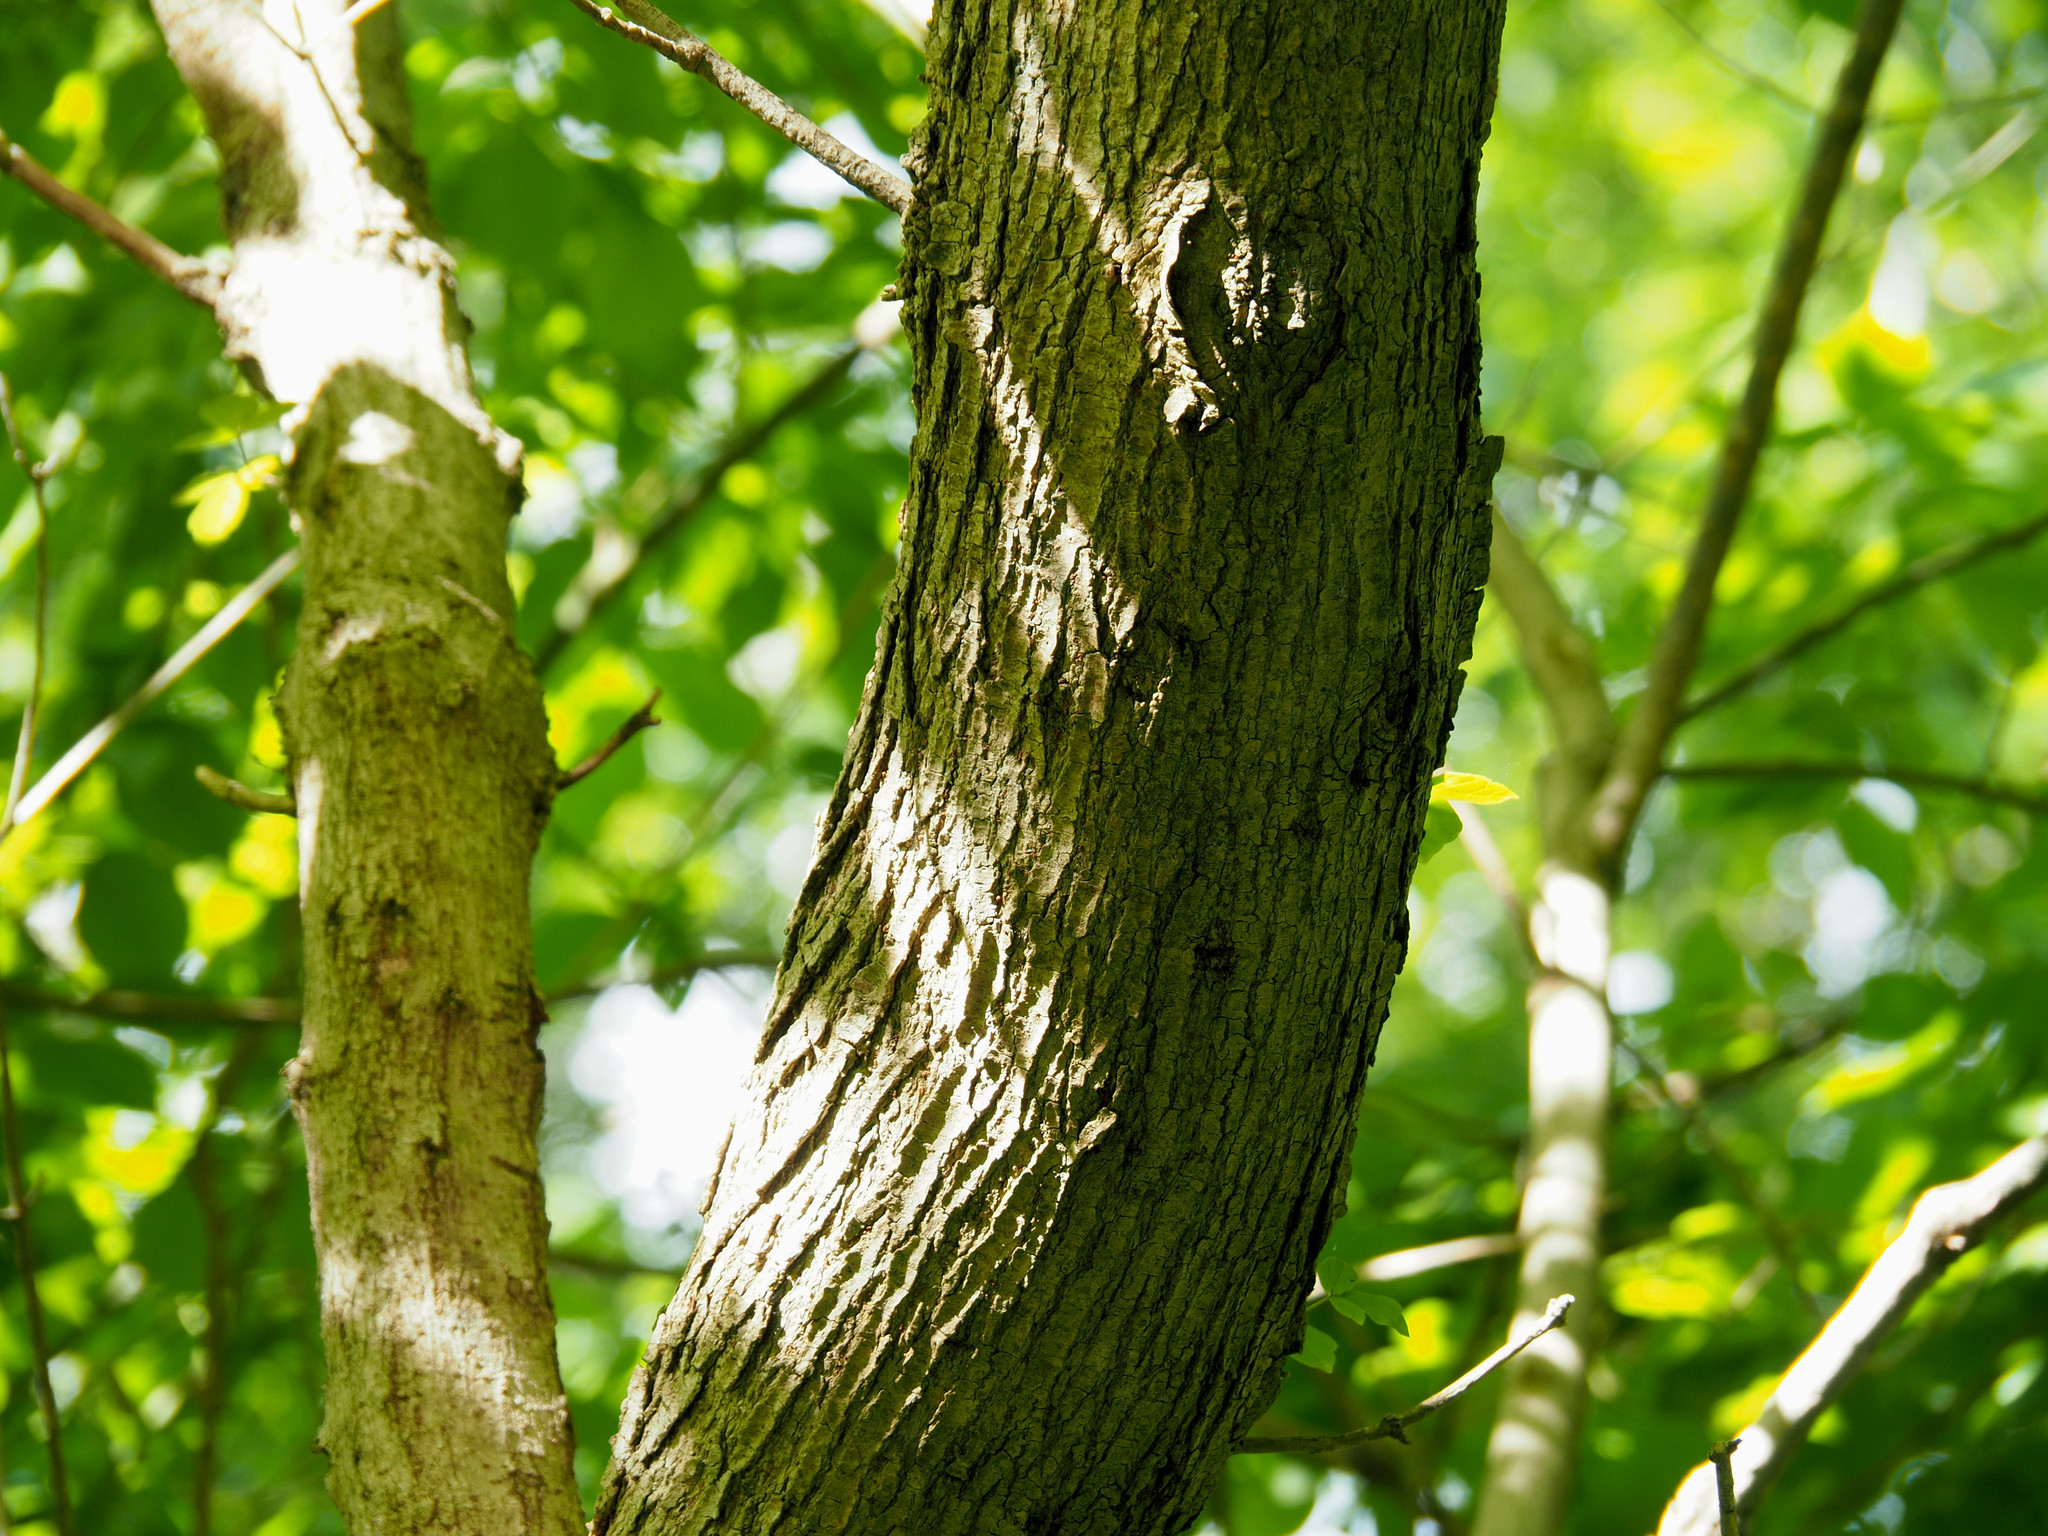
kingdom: Plantae
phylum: Tracheophyta
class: Magnoliopsida
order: Sapindales
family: Sapindaceae
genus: Acer
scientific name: Acer negundo
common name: Ashleaf maple
